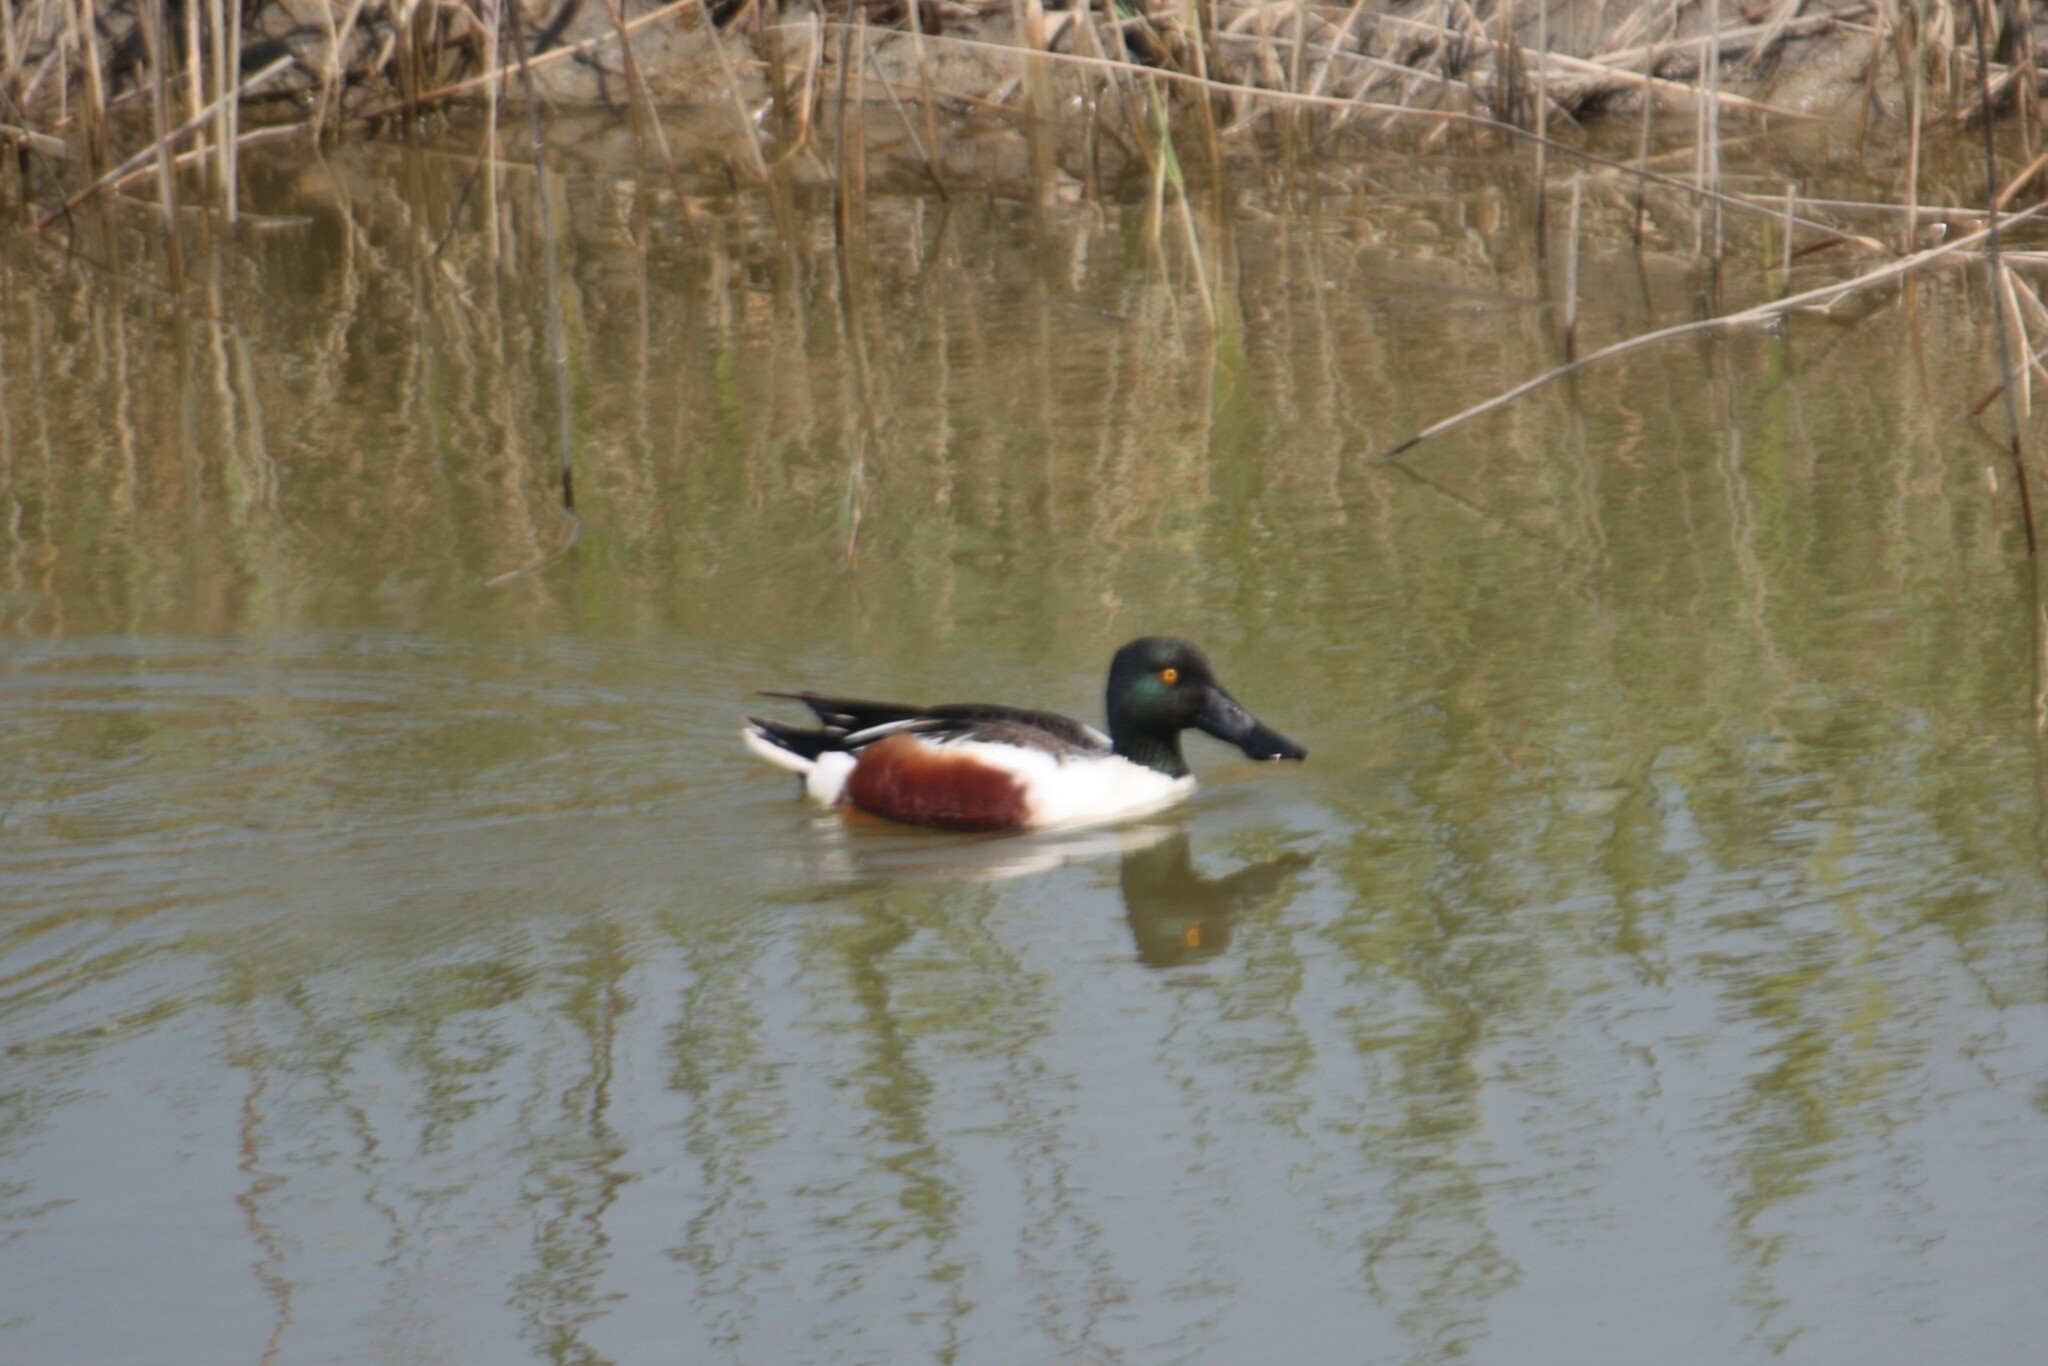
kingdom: Animalia
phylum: Chordata
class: Aves
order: Anseriformes
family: Anatidae
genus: Spatula
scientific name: Spatula clypeata
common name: Northern shoveler
